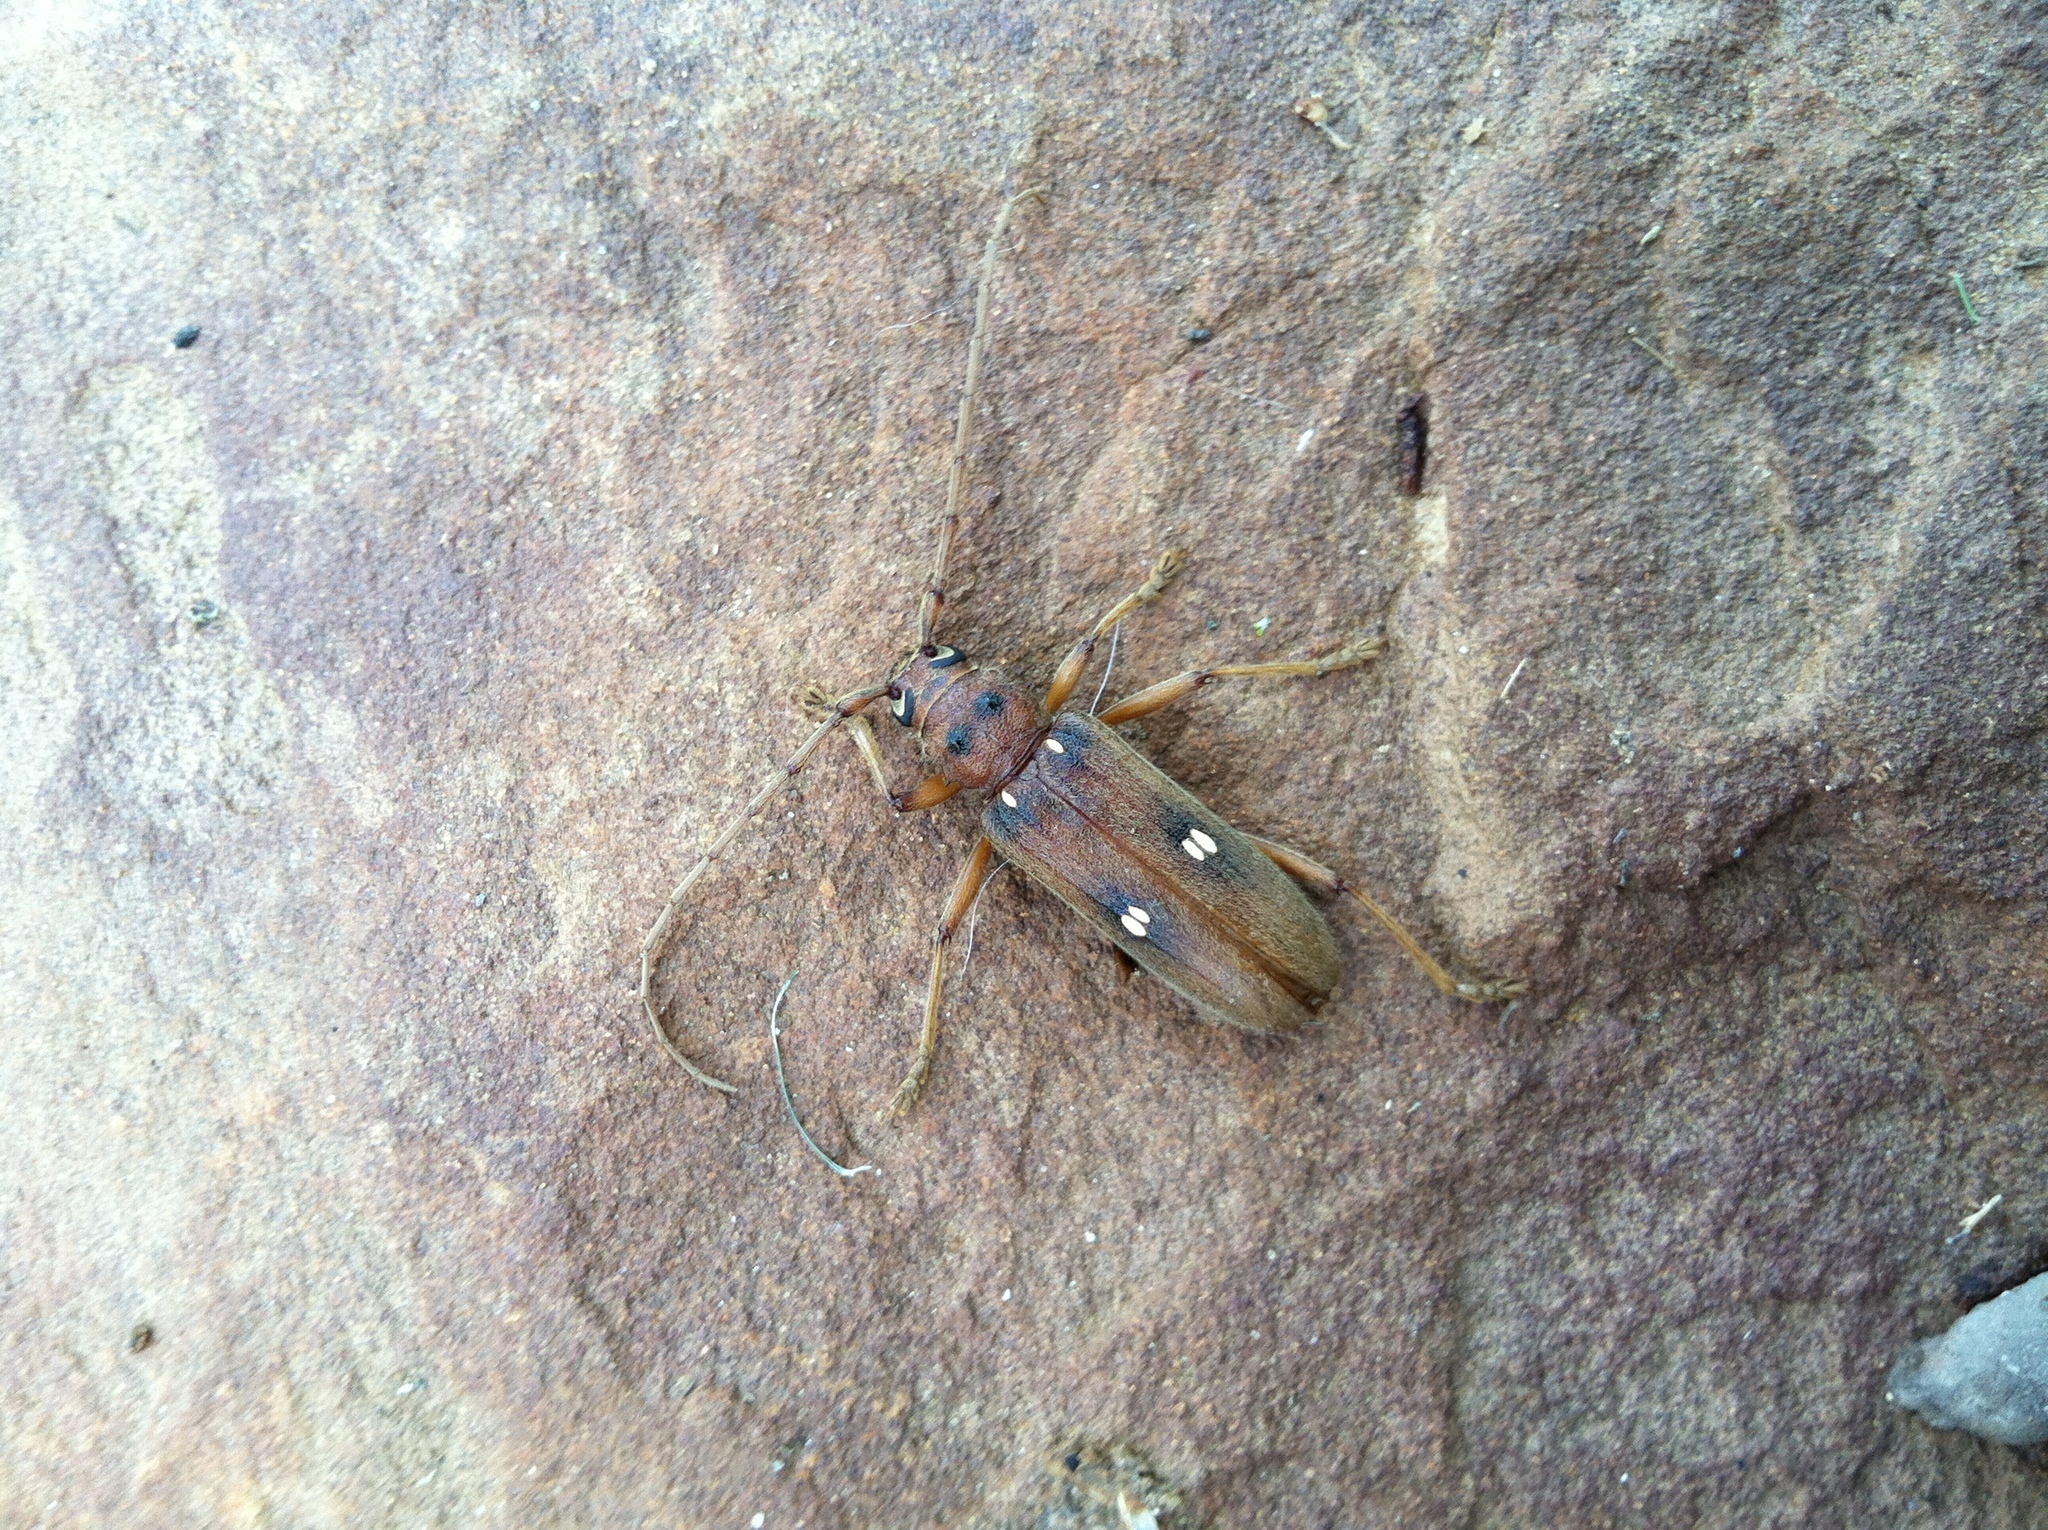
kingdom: Animalia
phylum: Arthropoda
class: Insecta
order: Coleoptera
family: Cerambycidae
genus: Eburia
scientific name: Eburia haldemani
